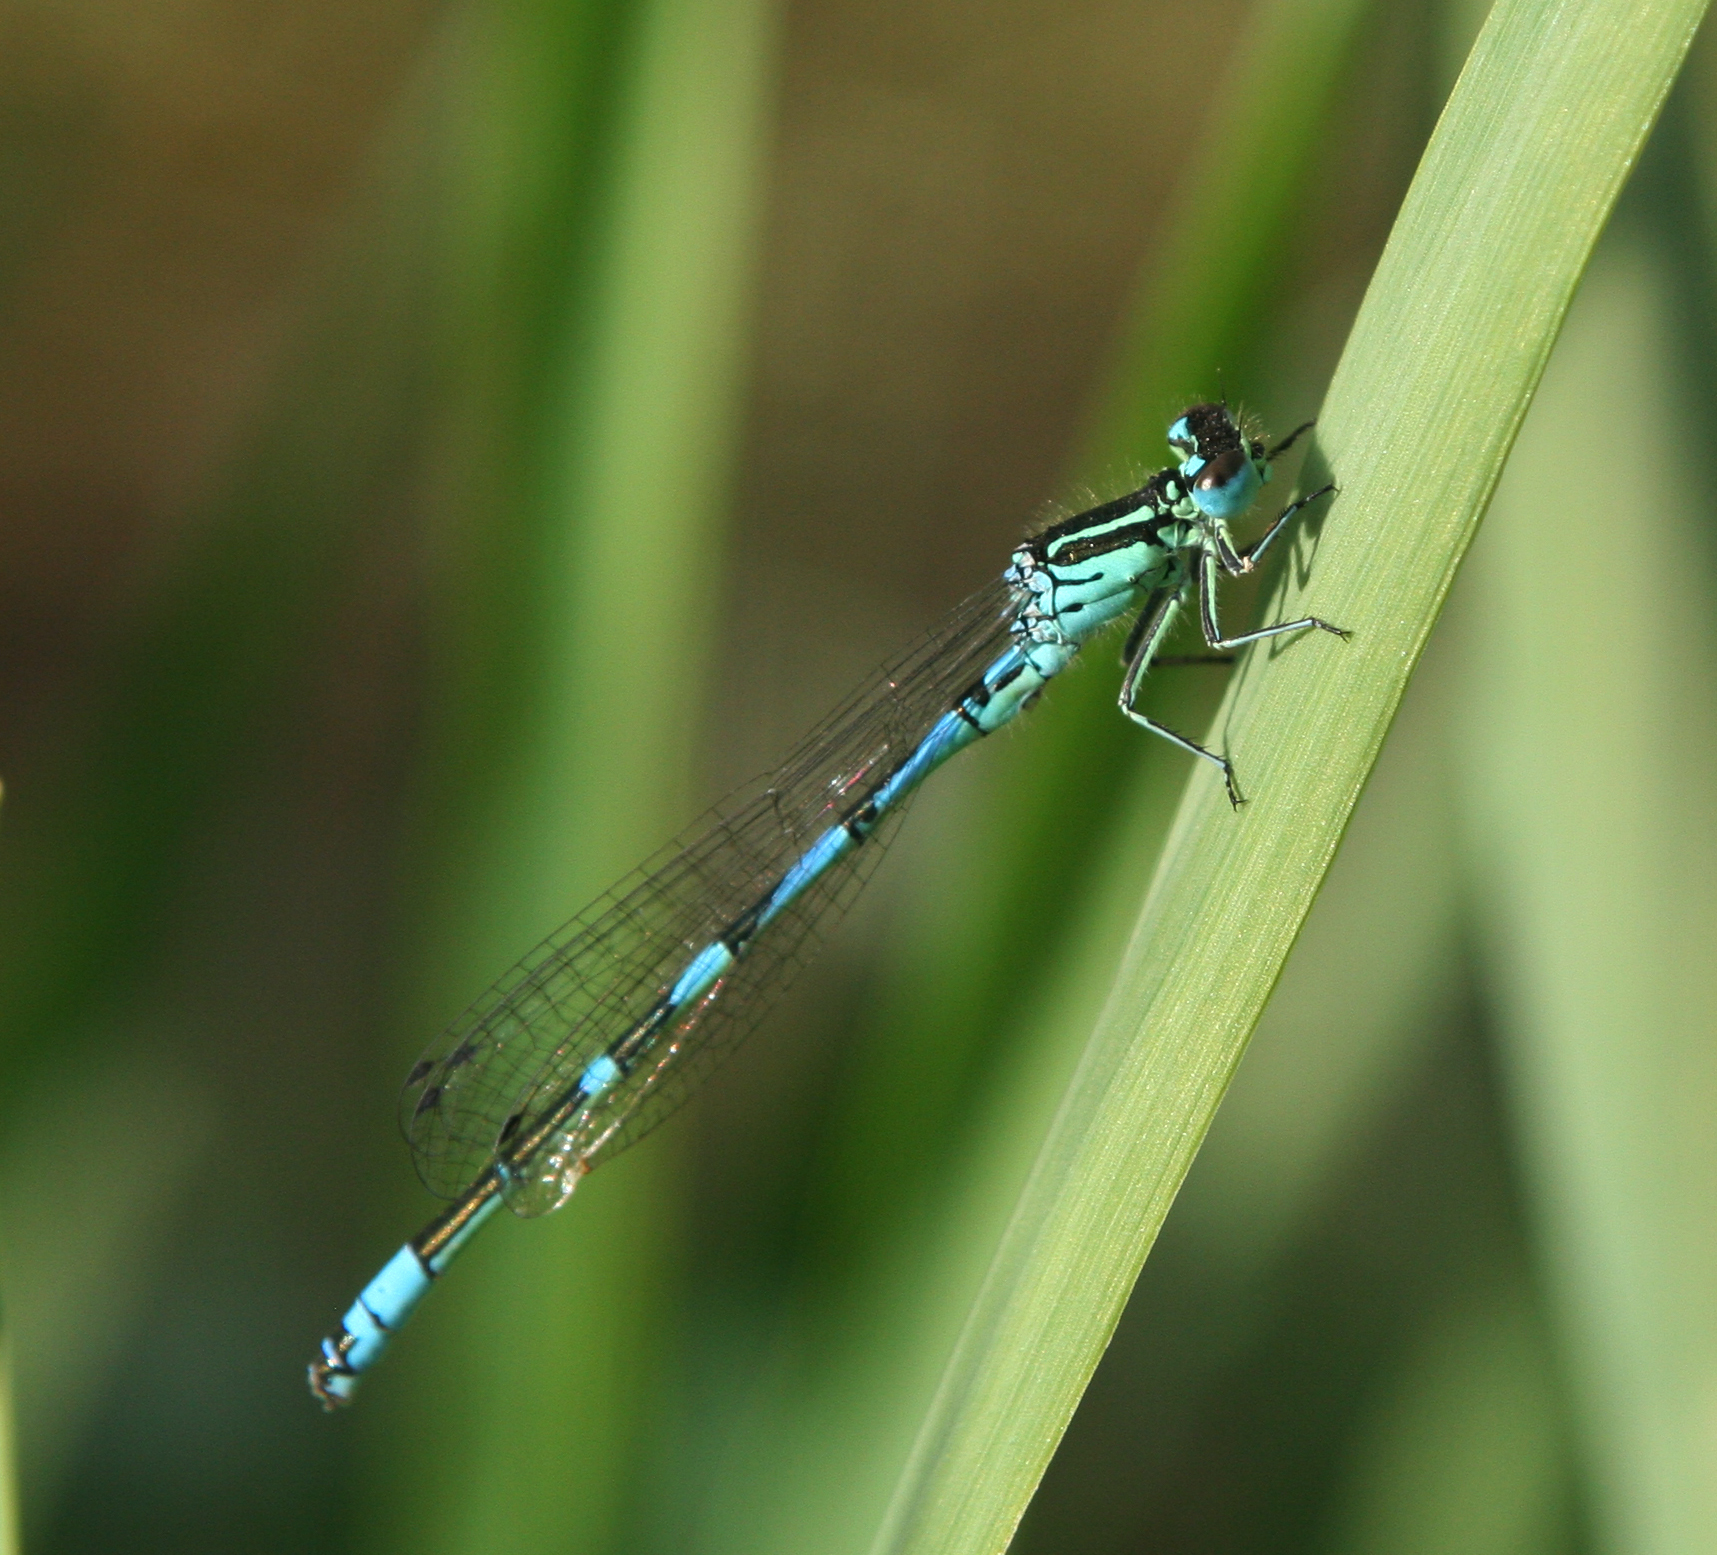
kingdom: Animalia
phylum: Arthropoda
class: Insecta
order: Odonata
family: Coenagrionidae
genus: Coenagrion
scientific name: Coenagrion ornatum
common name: Ornate bluet
